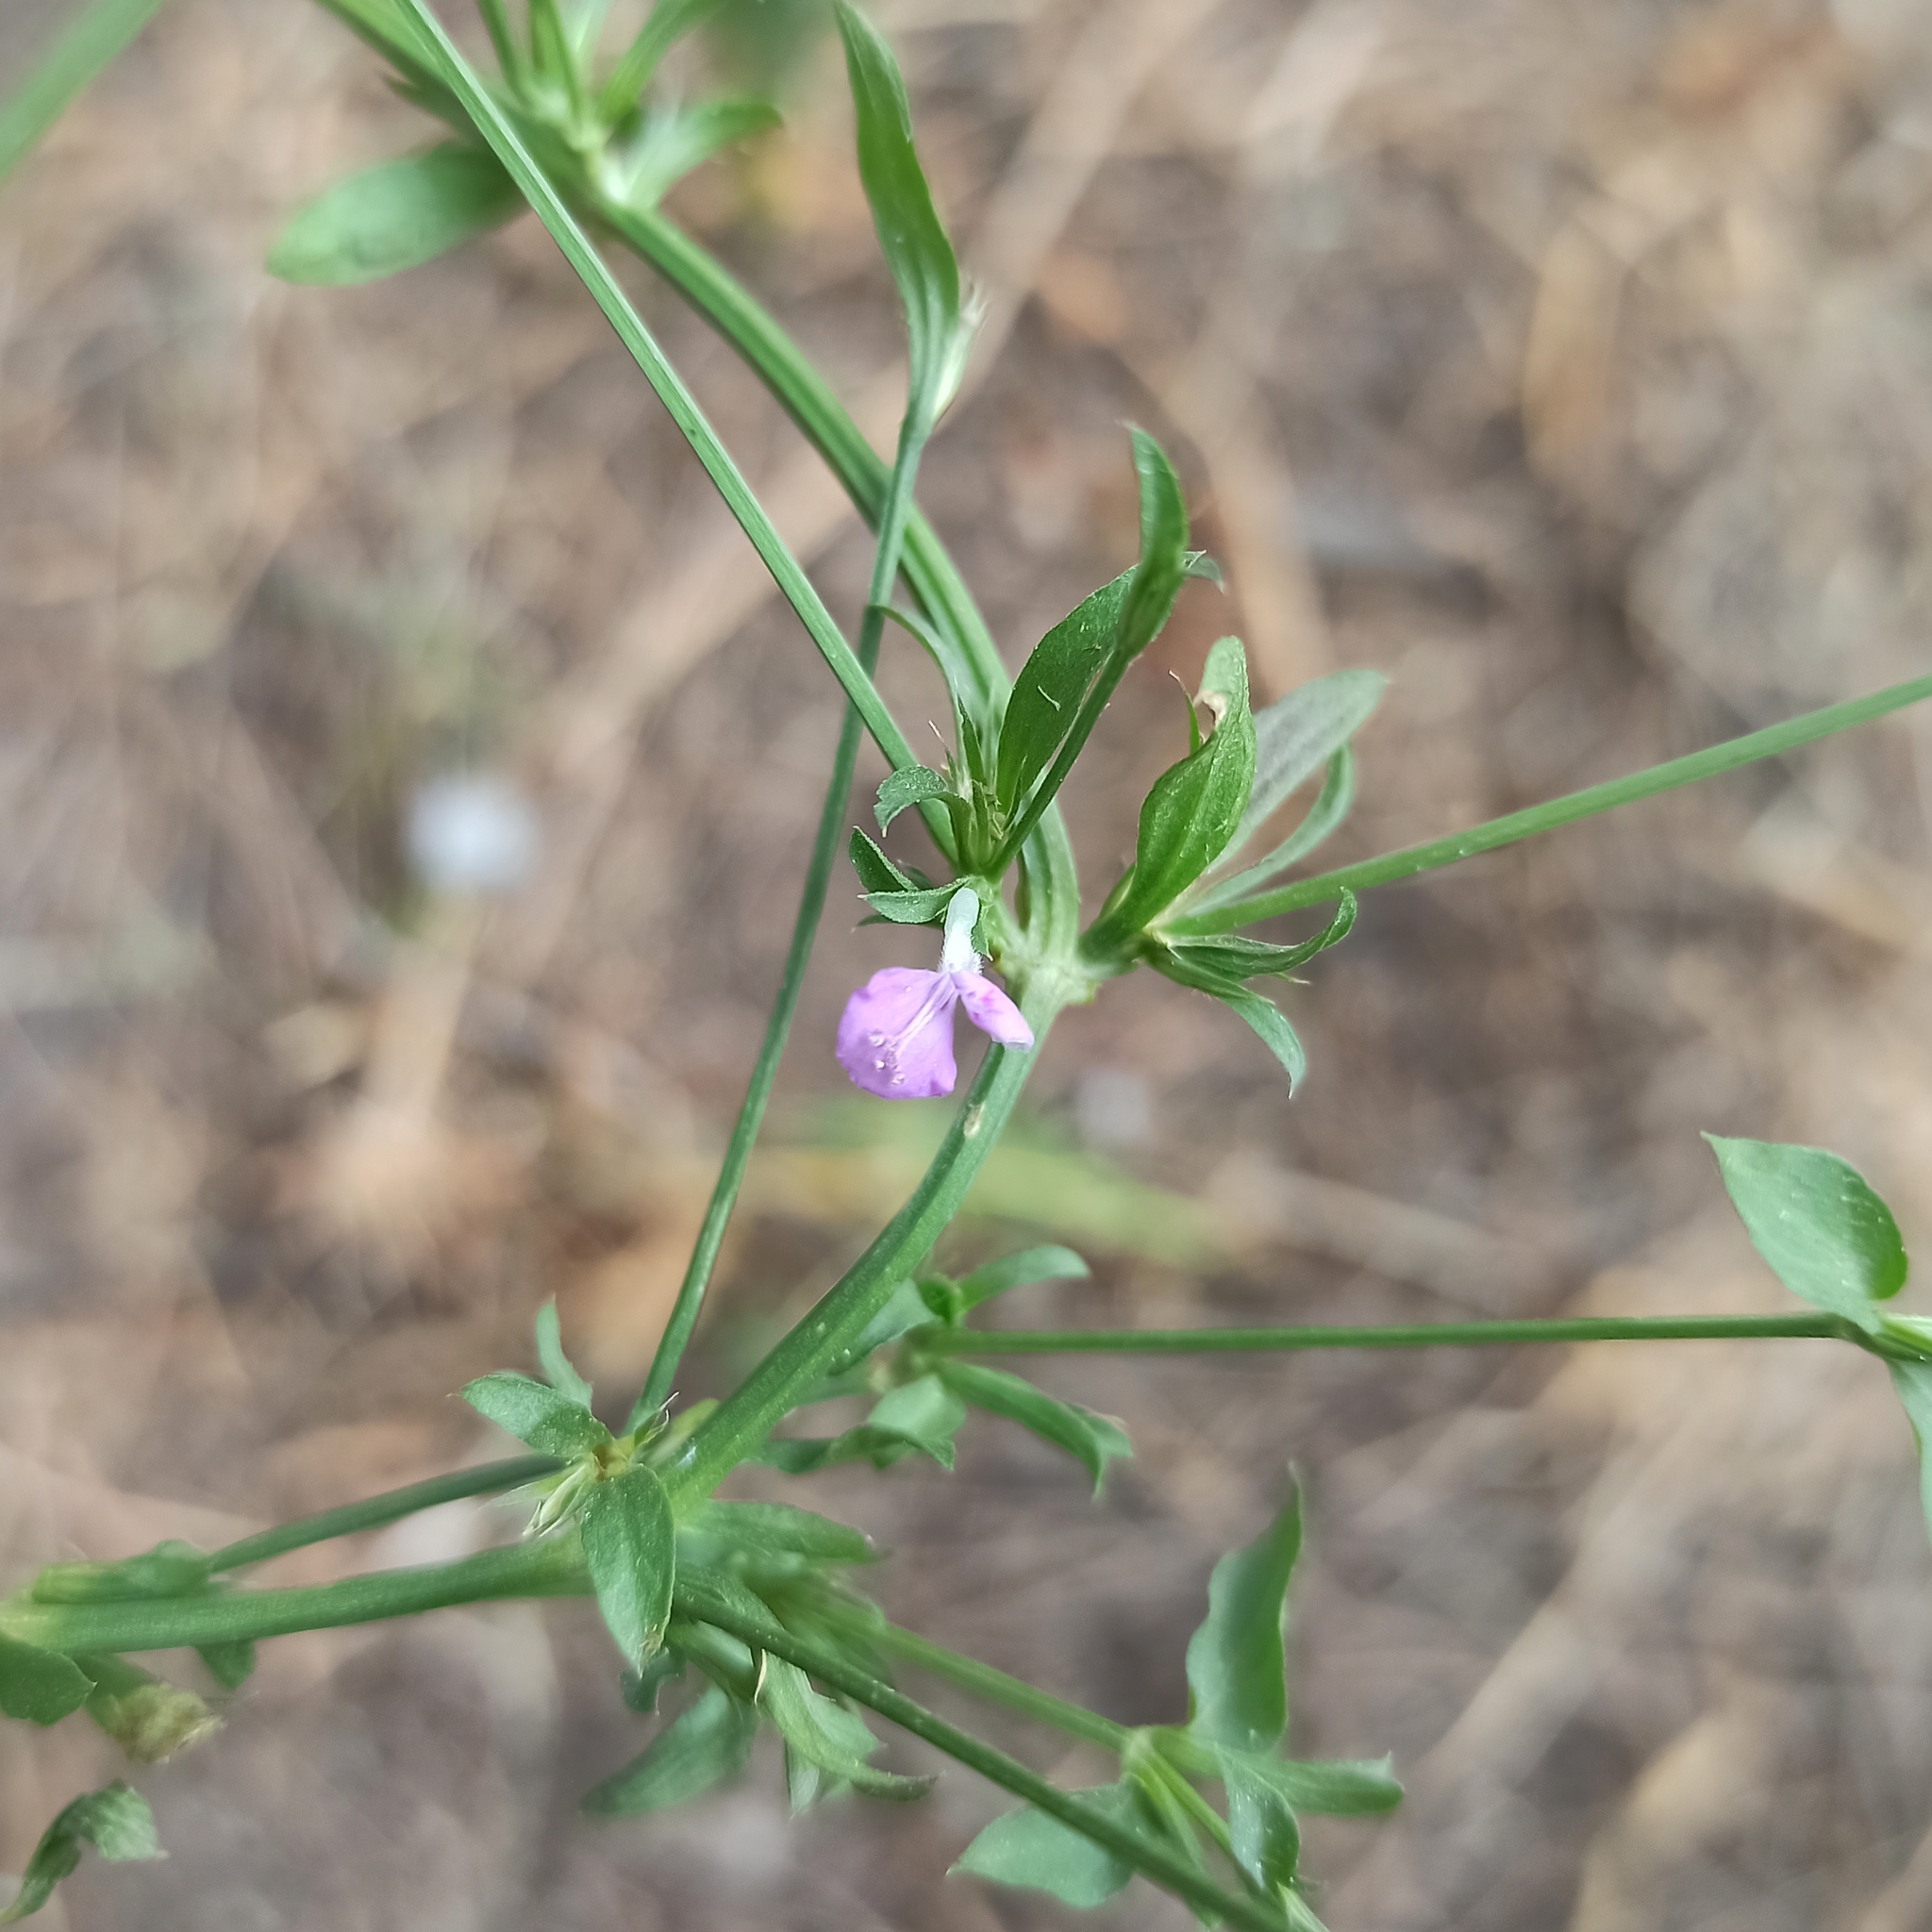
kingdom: Plantae
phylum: Tracheophyta
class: Magnoliopsida
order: Lamiales
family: Acanthaceae
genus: Dicliptera
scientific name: Dicliptera peduncularis
